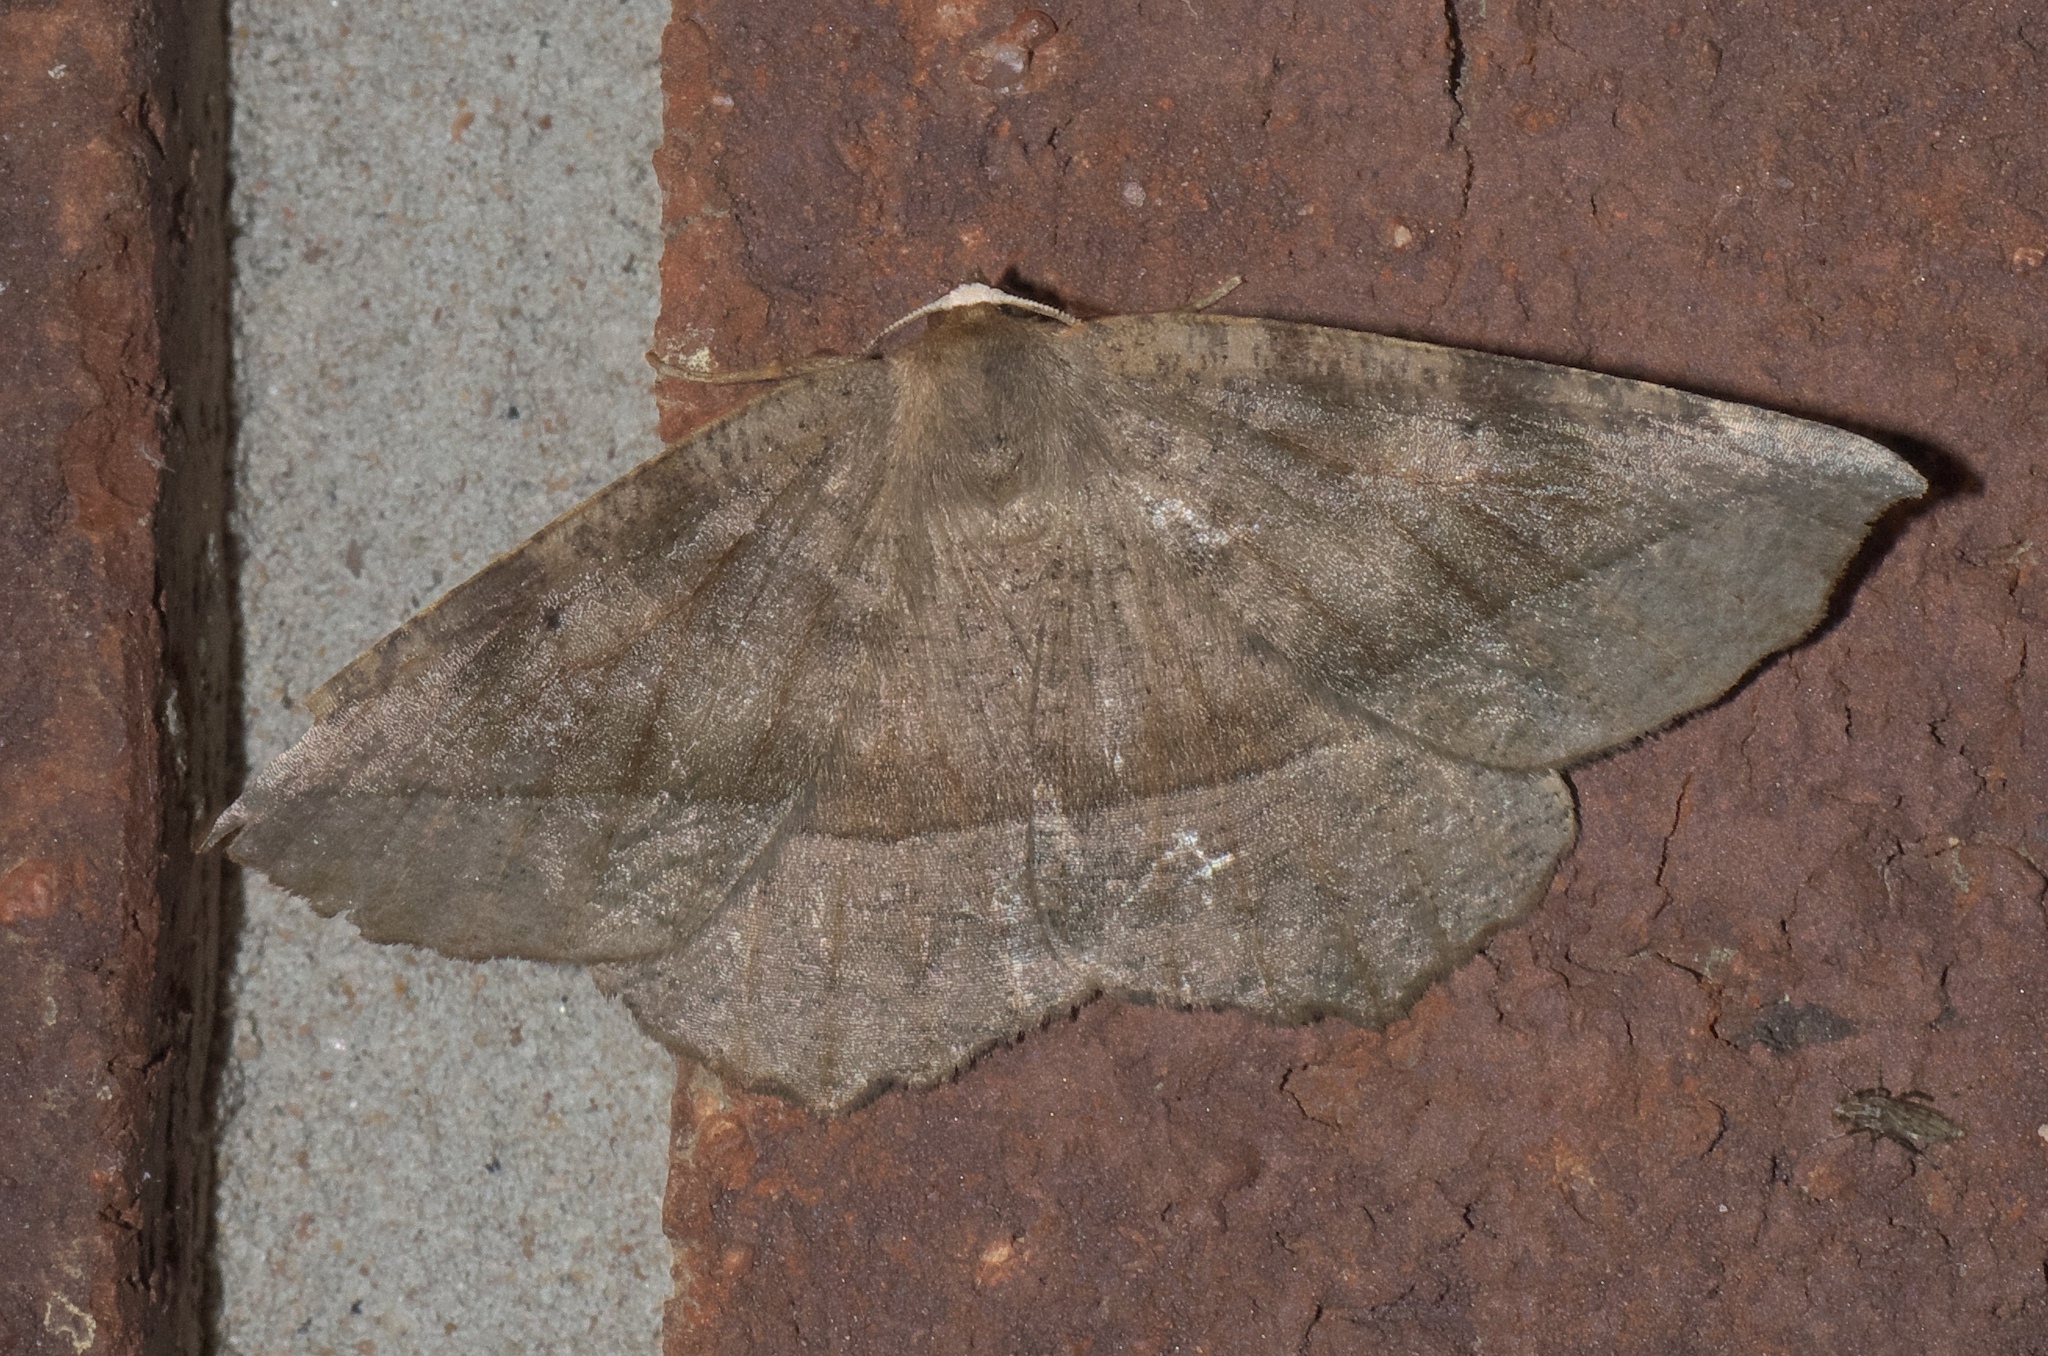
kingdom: Animalia
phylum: Arthropoda
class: Insecta
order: Lepidoptera
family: Geometridae
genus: Eutrapela
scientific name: Eutrapela clemataria
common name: Curved-toothed geometer
